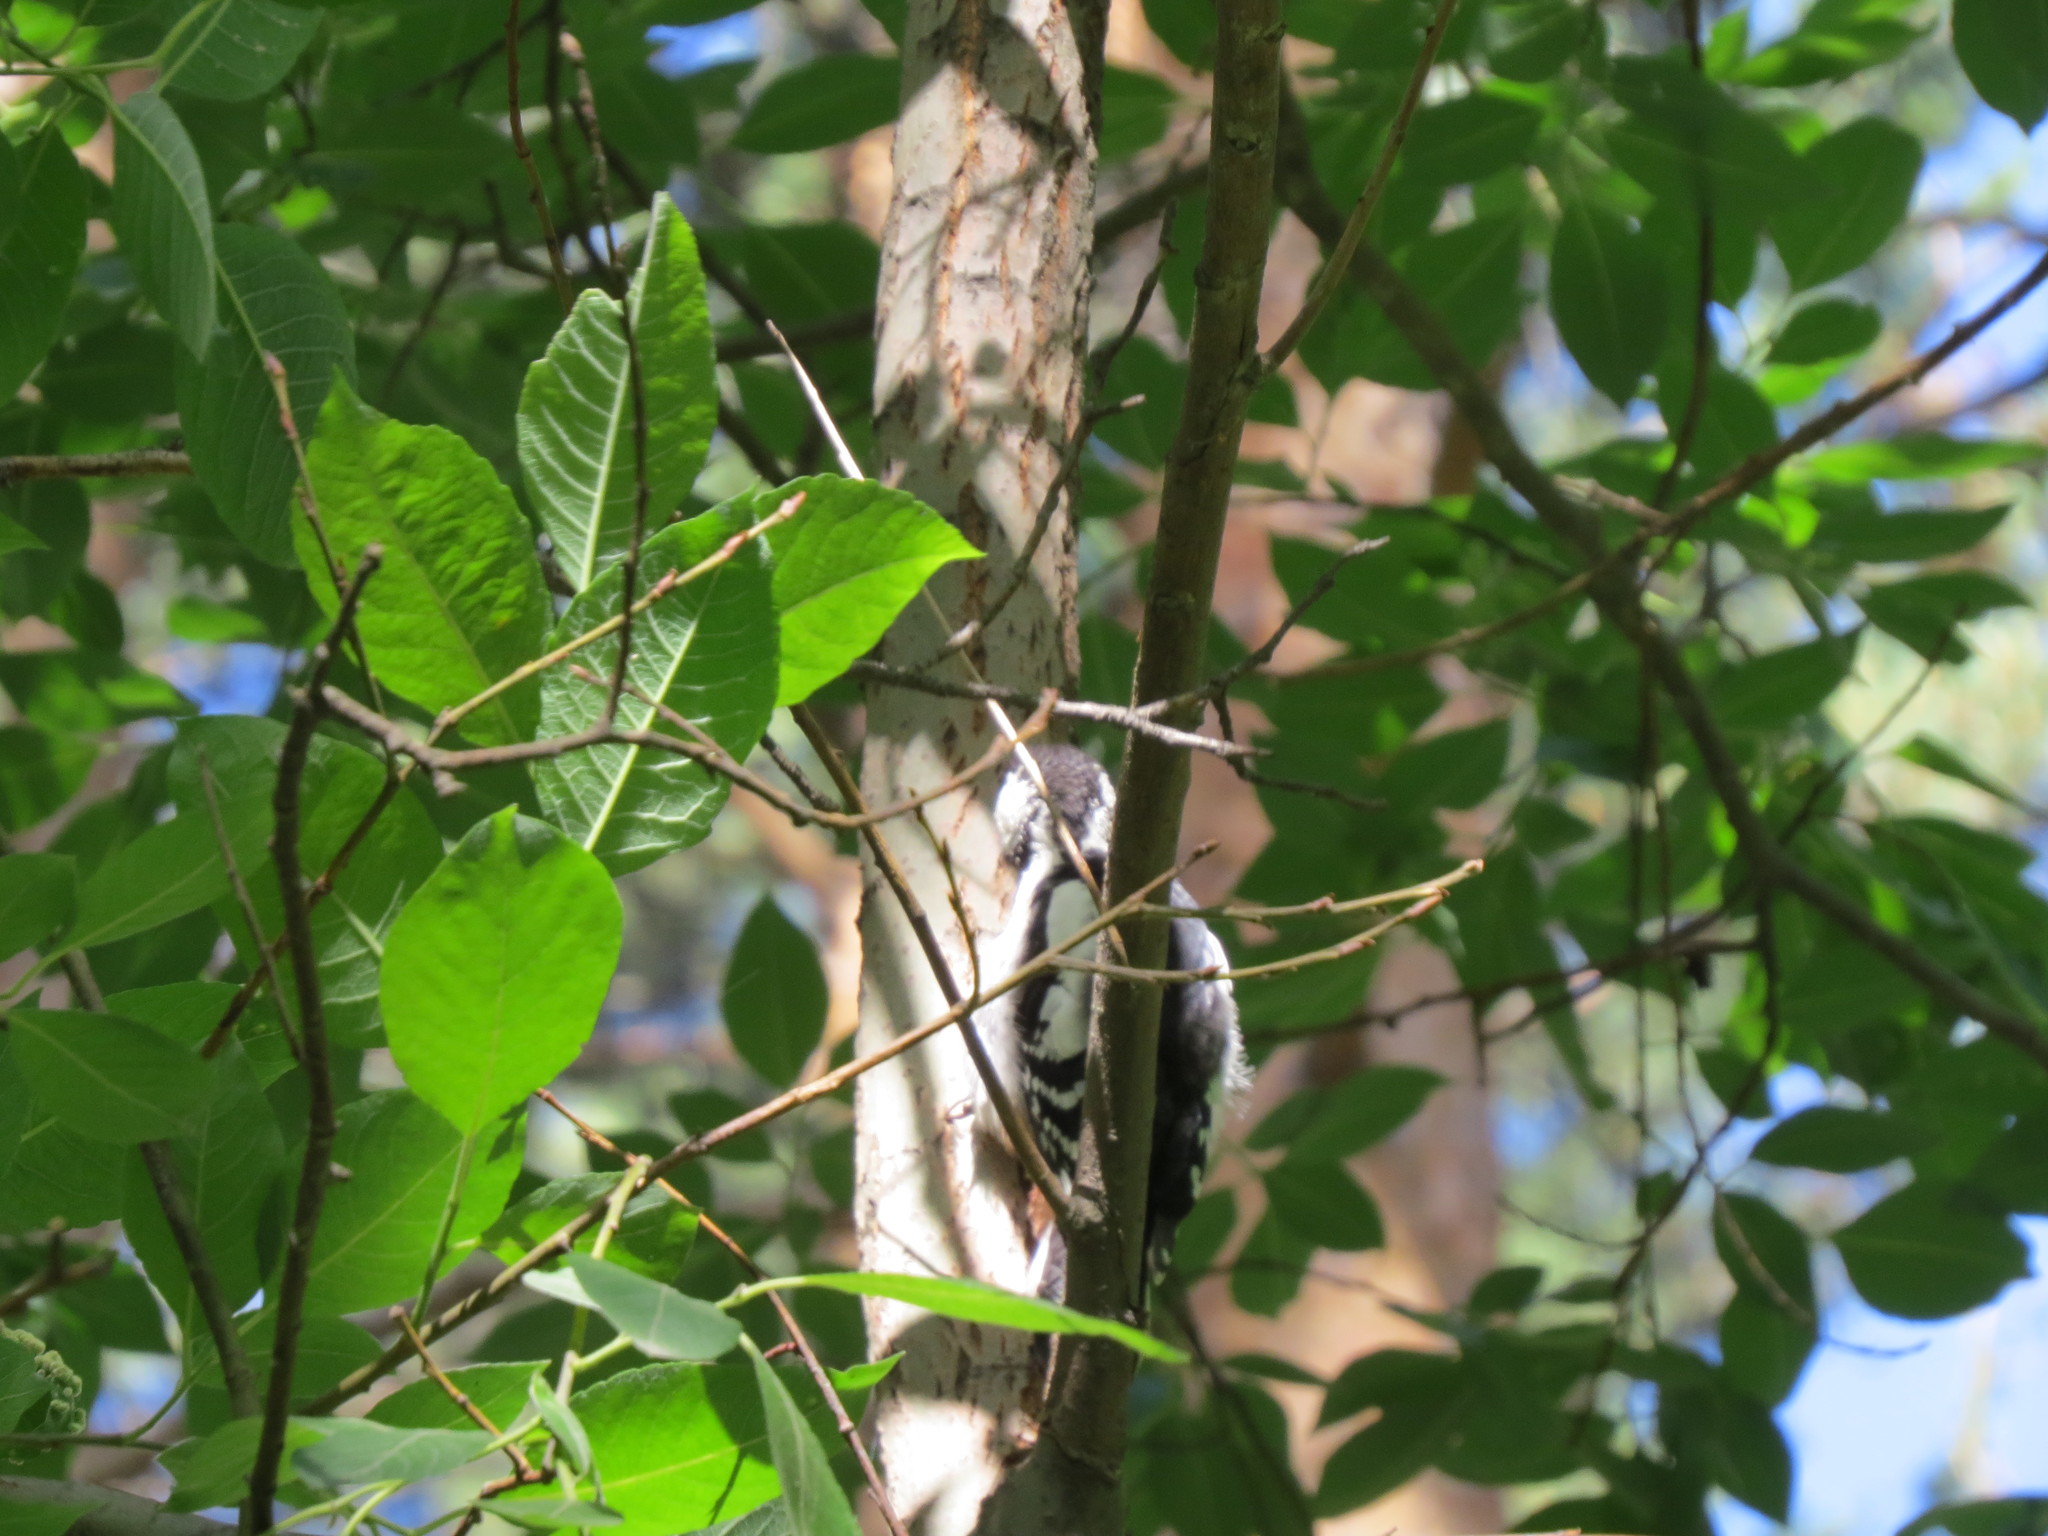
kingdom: Animalia
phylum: Chordata
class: Aves
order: Piciformes
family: Picidae
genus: Dendrocopos
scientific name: Dendrocopos major
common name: Great spotted woodpecker
